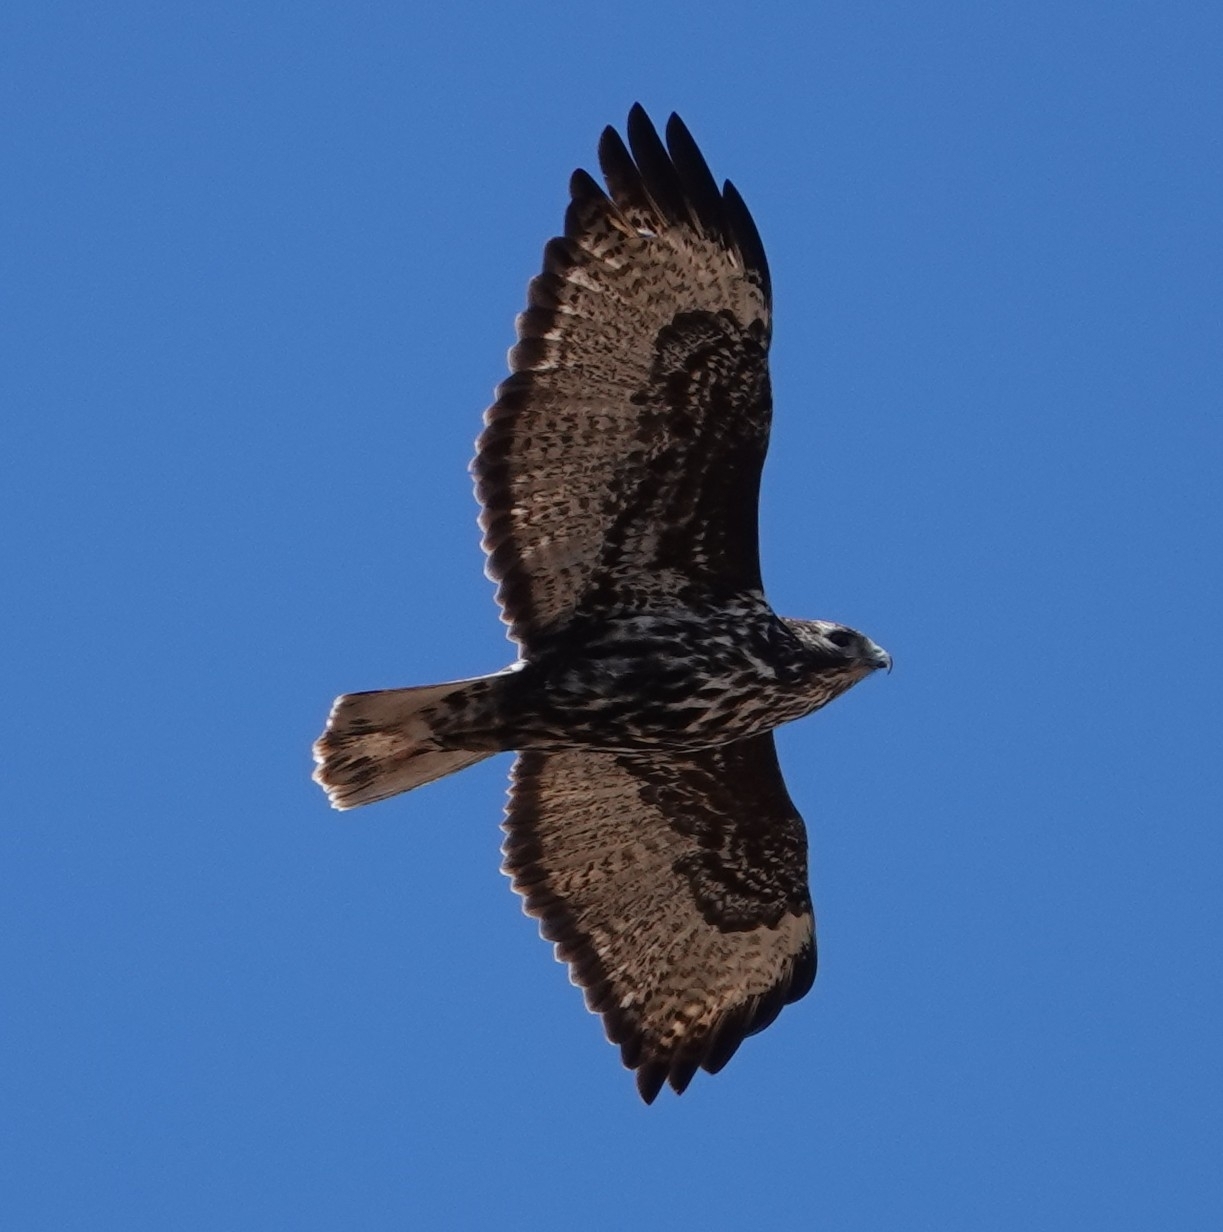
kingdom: Animalia
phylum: Chordata
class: Aves
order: Accipitriformes
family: Accipitridae
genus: Buteo
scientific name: Buteo jamaicensis
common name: Red-tailed hawk
